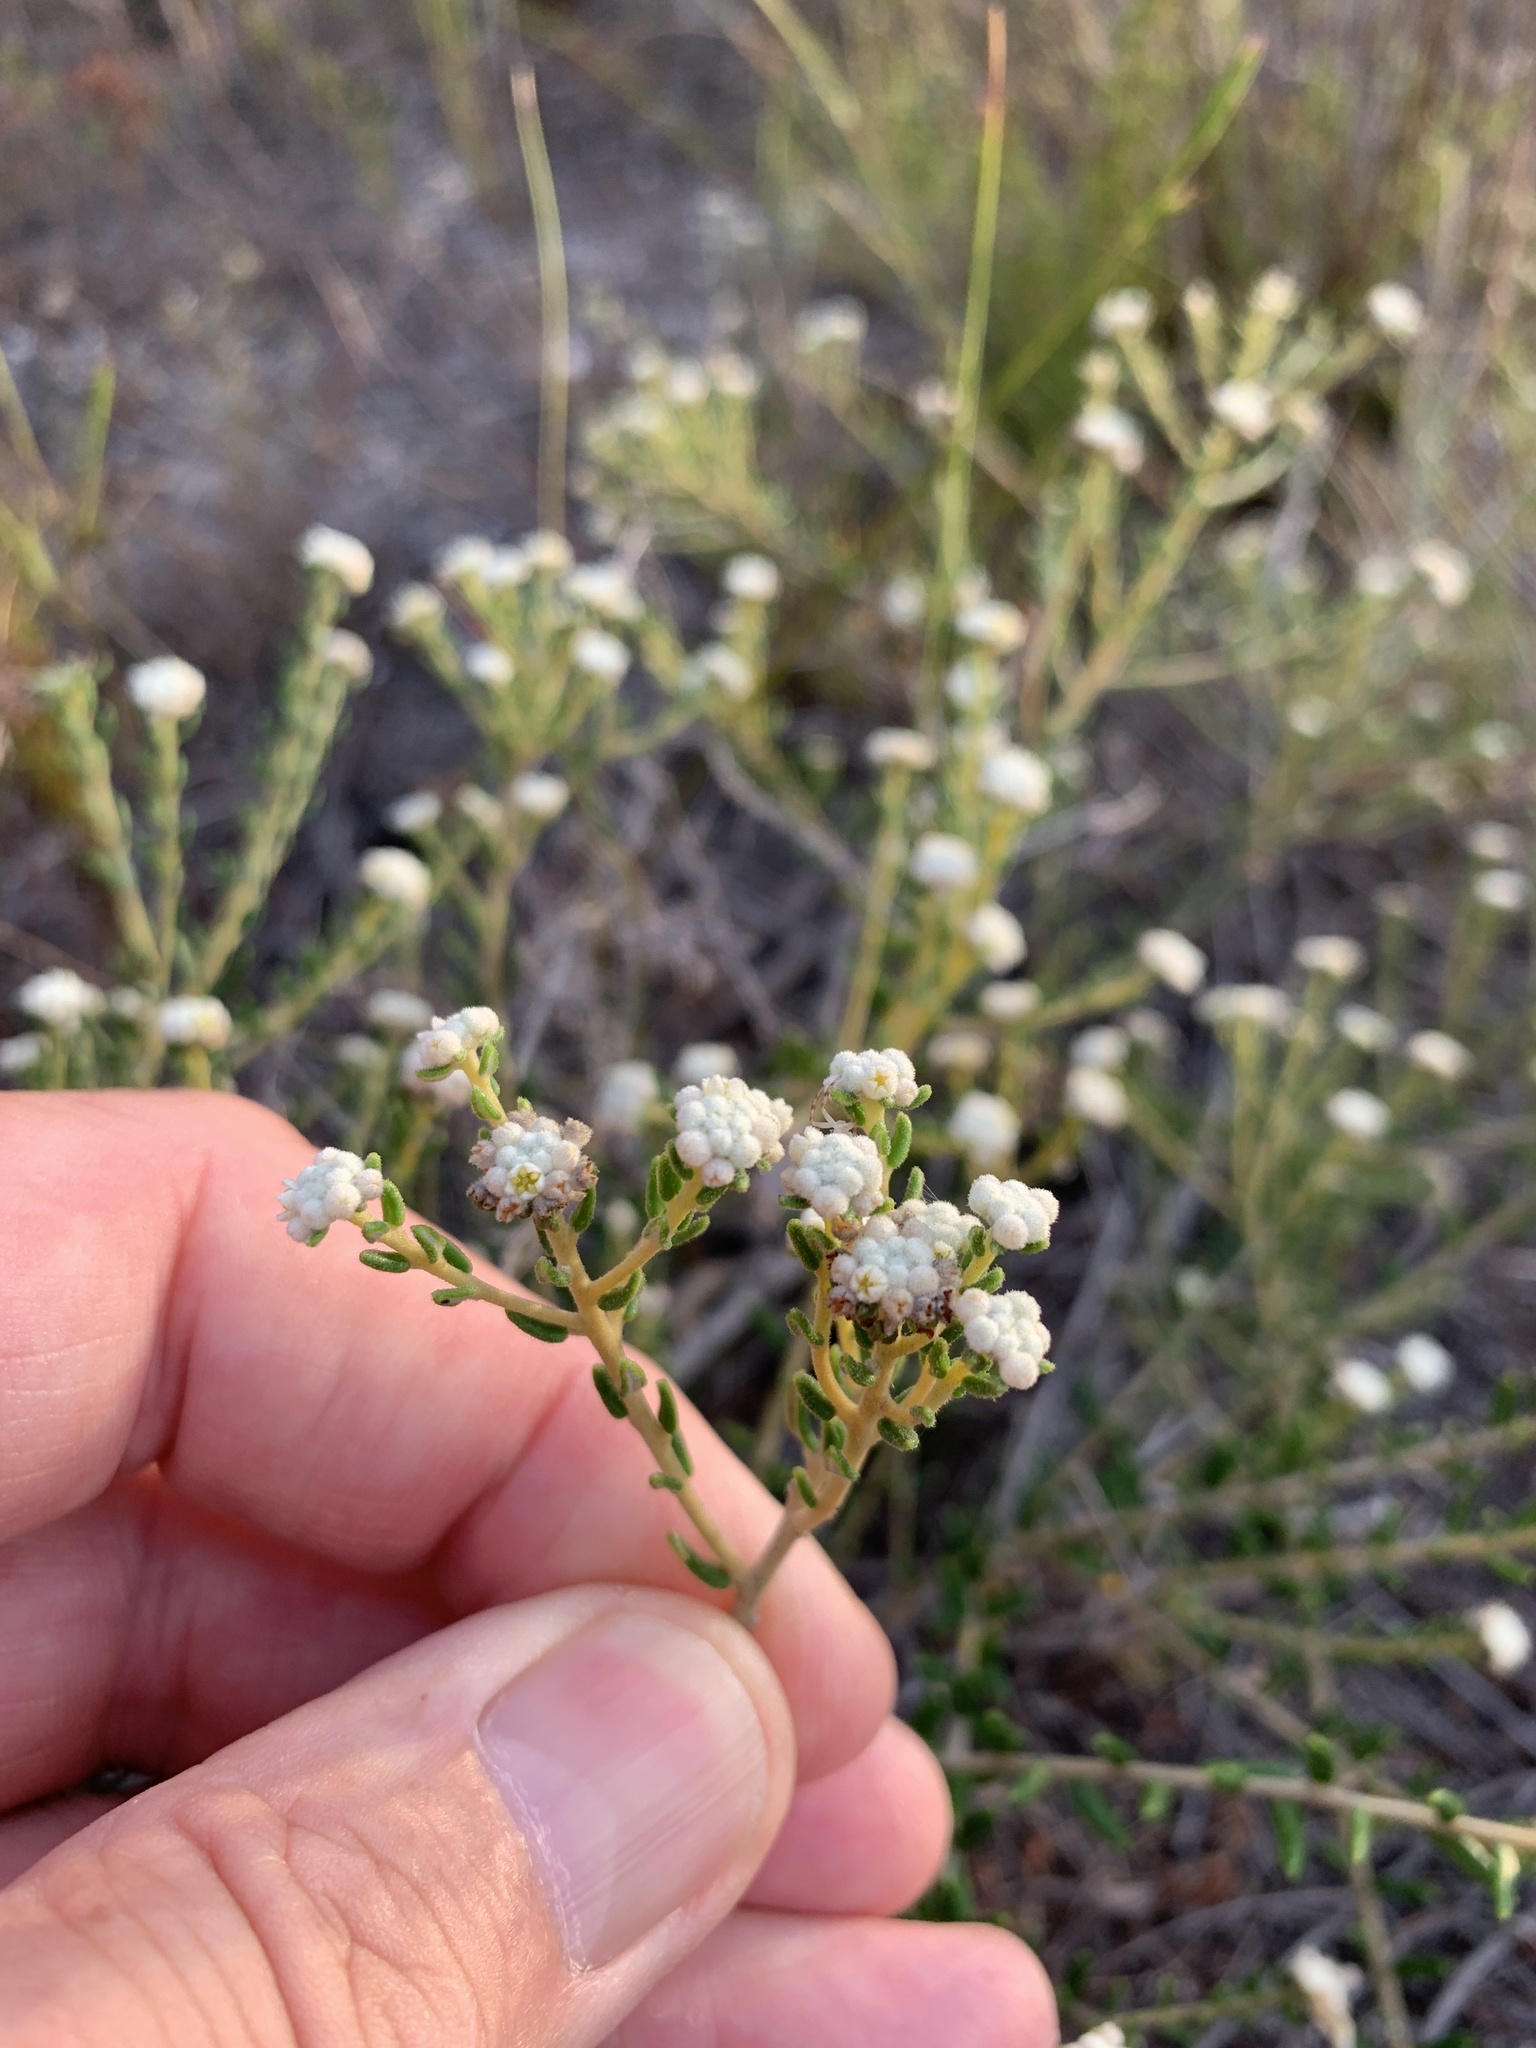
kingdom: Plantae
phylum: Tracheophyta
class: Magnoliopsida
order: Rosales
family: Rhamnaceae
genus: Phylica
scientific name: Phylica lasiocarpa
